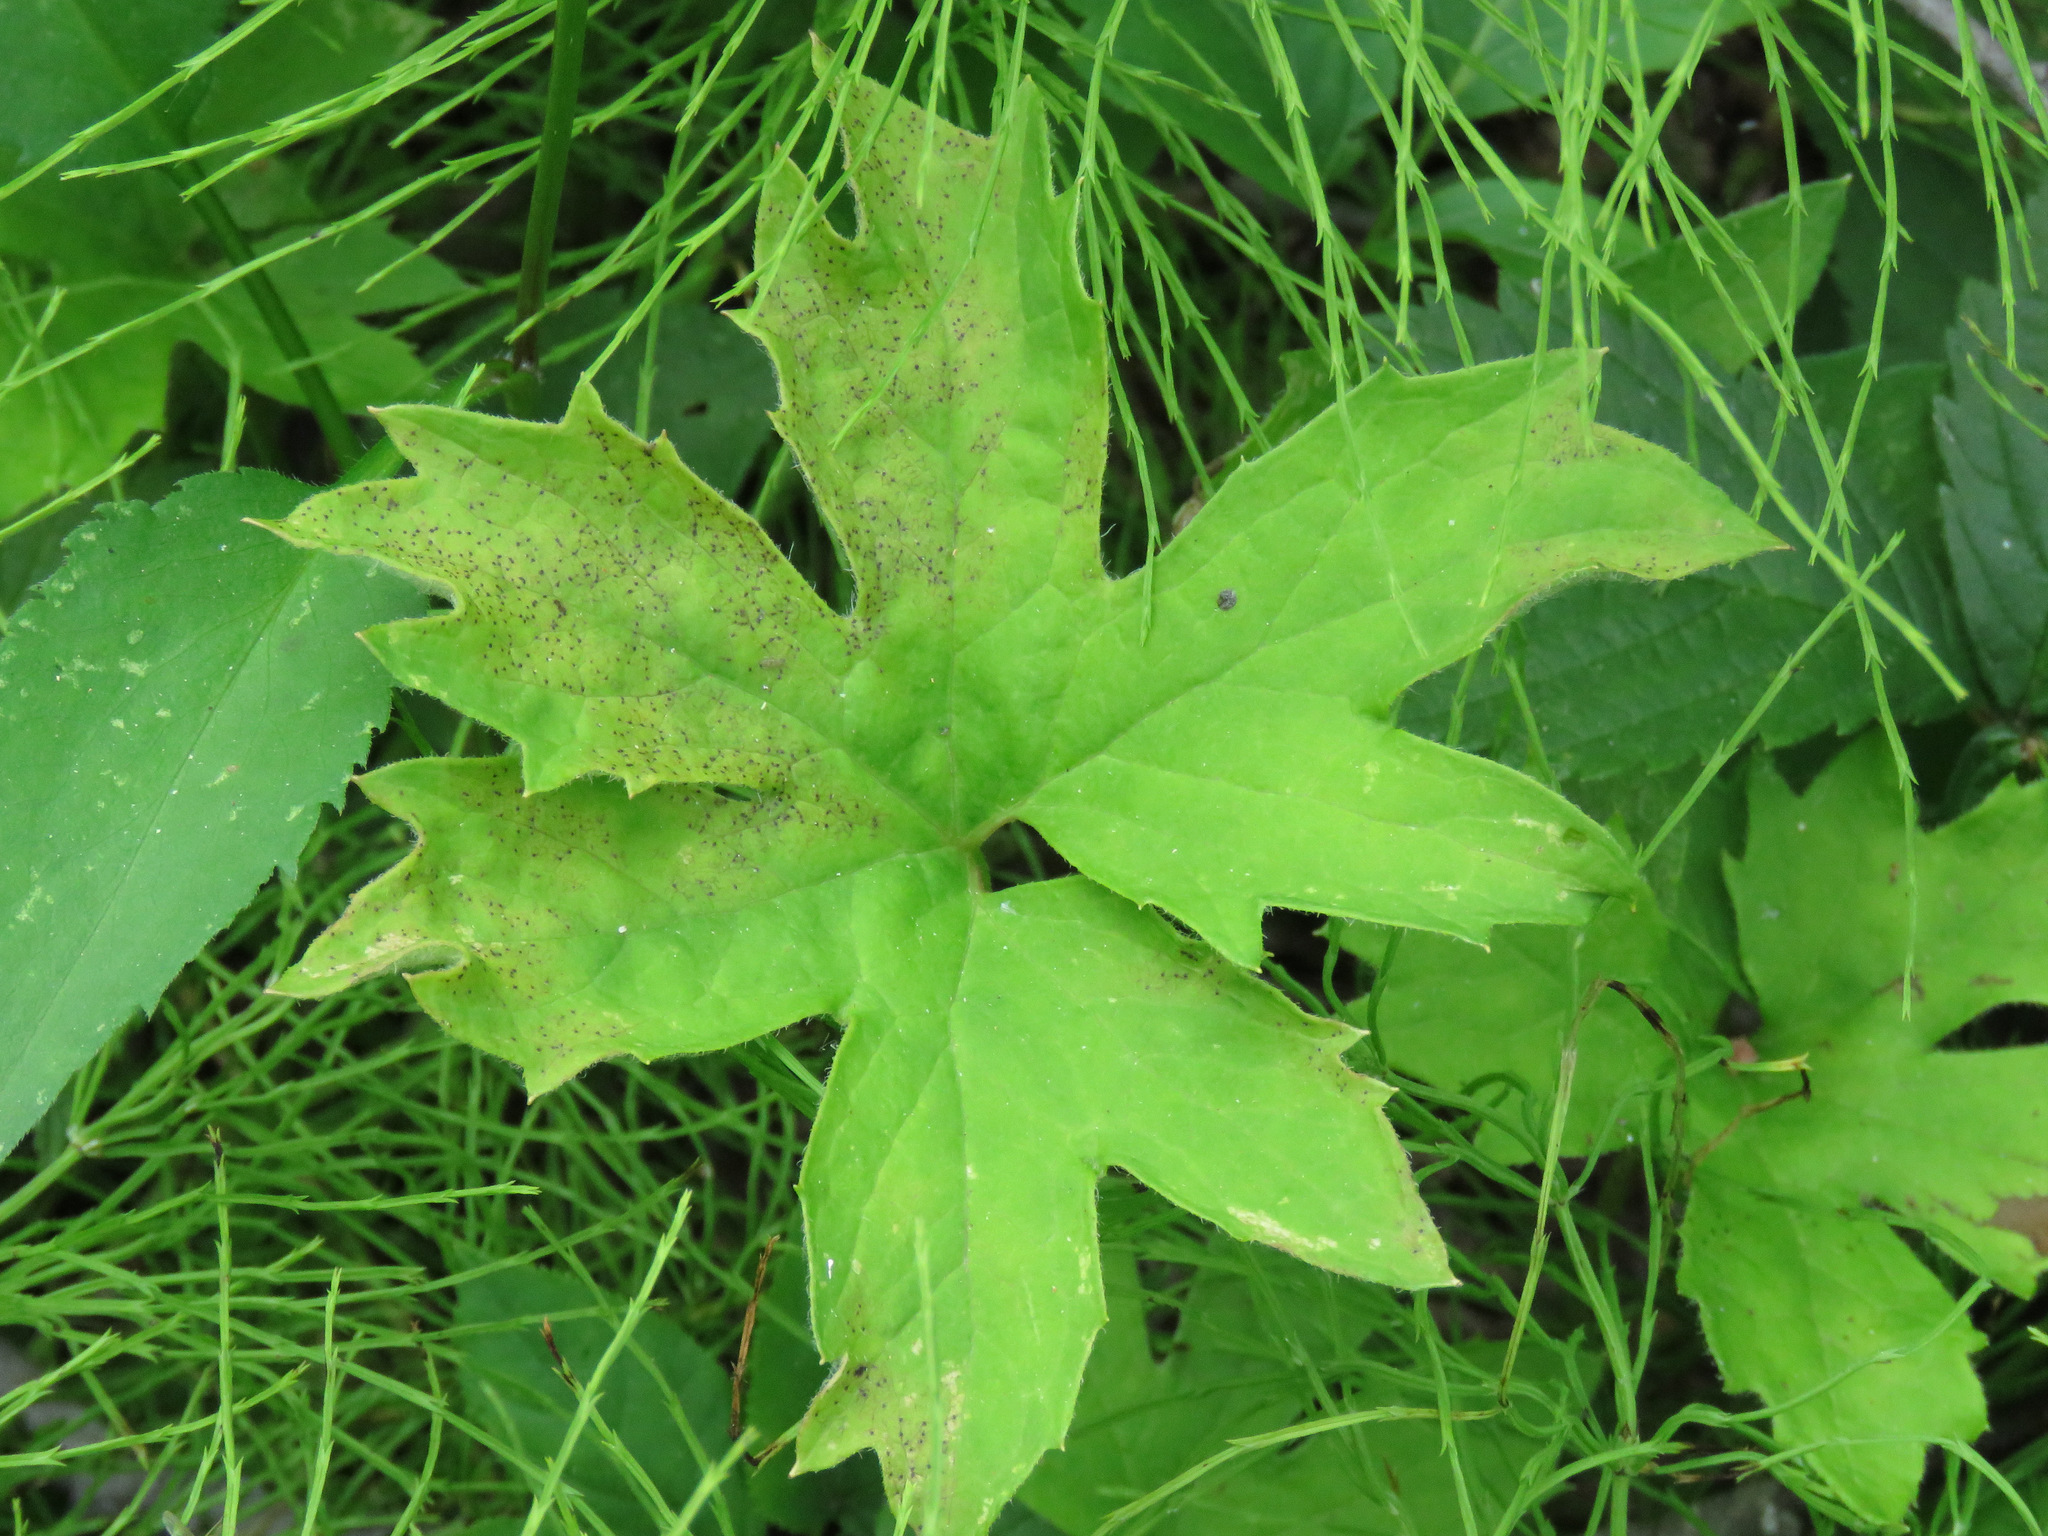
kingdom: Plantae
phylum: Tracheophyta
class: Magnoliopsida
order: Asterales
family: Asteraceae
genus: Petasites
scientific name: Petasites frigidus
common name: Arctic butterbur
